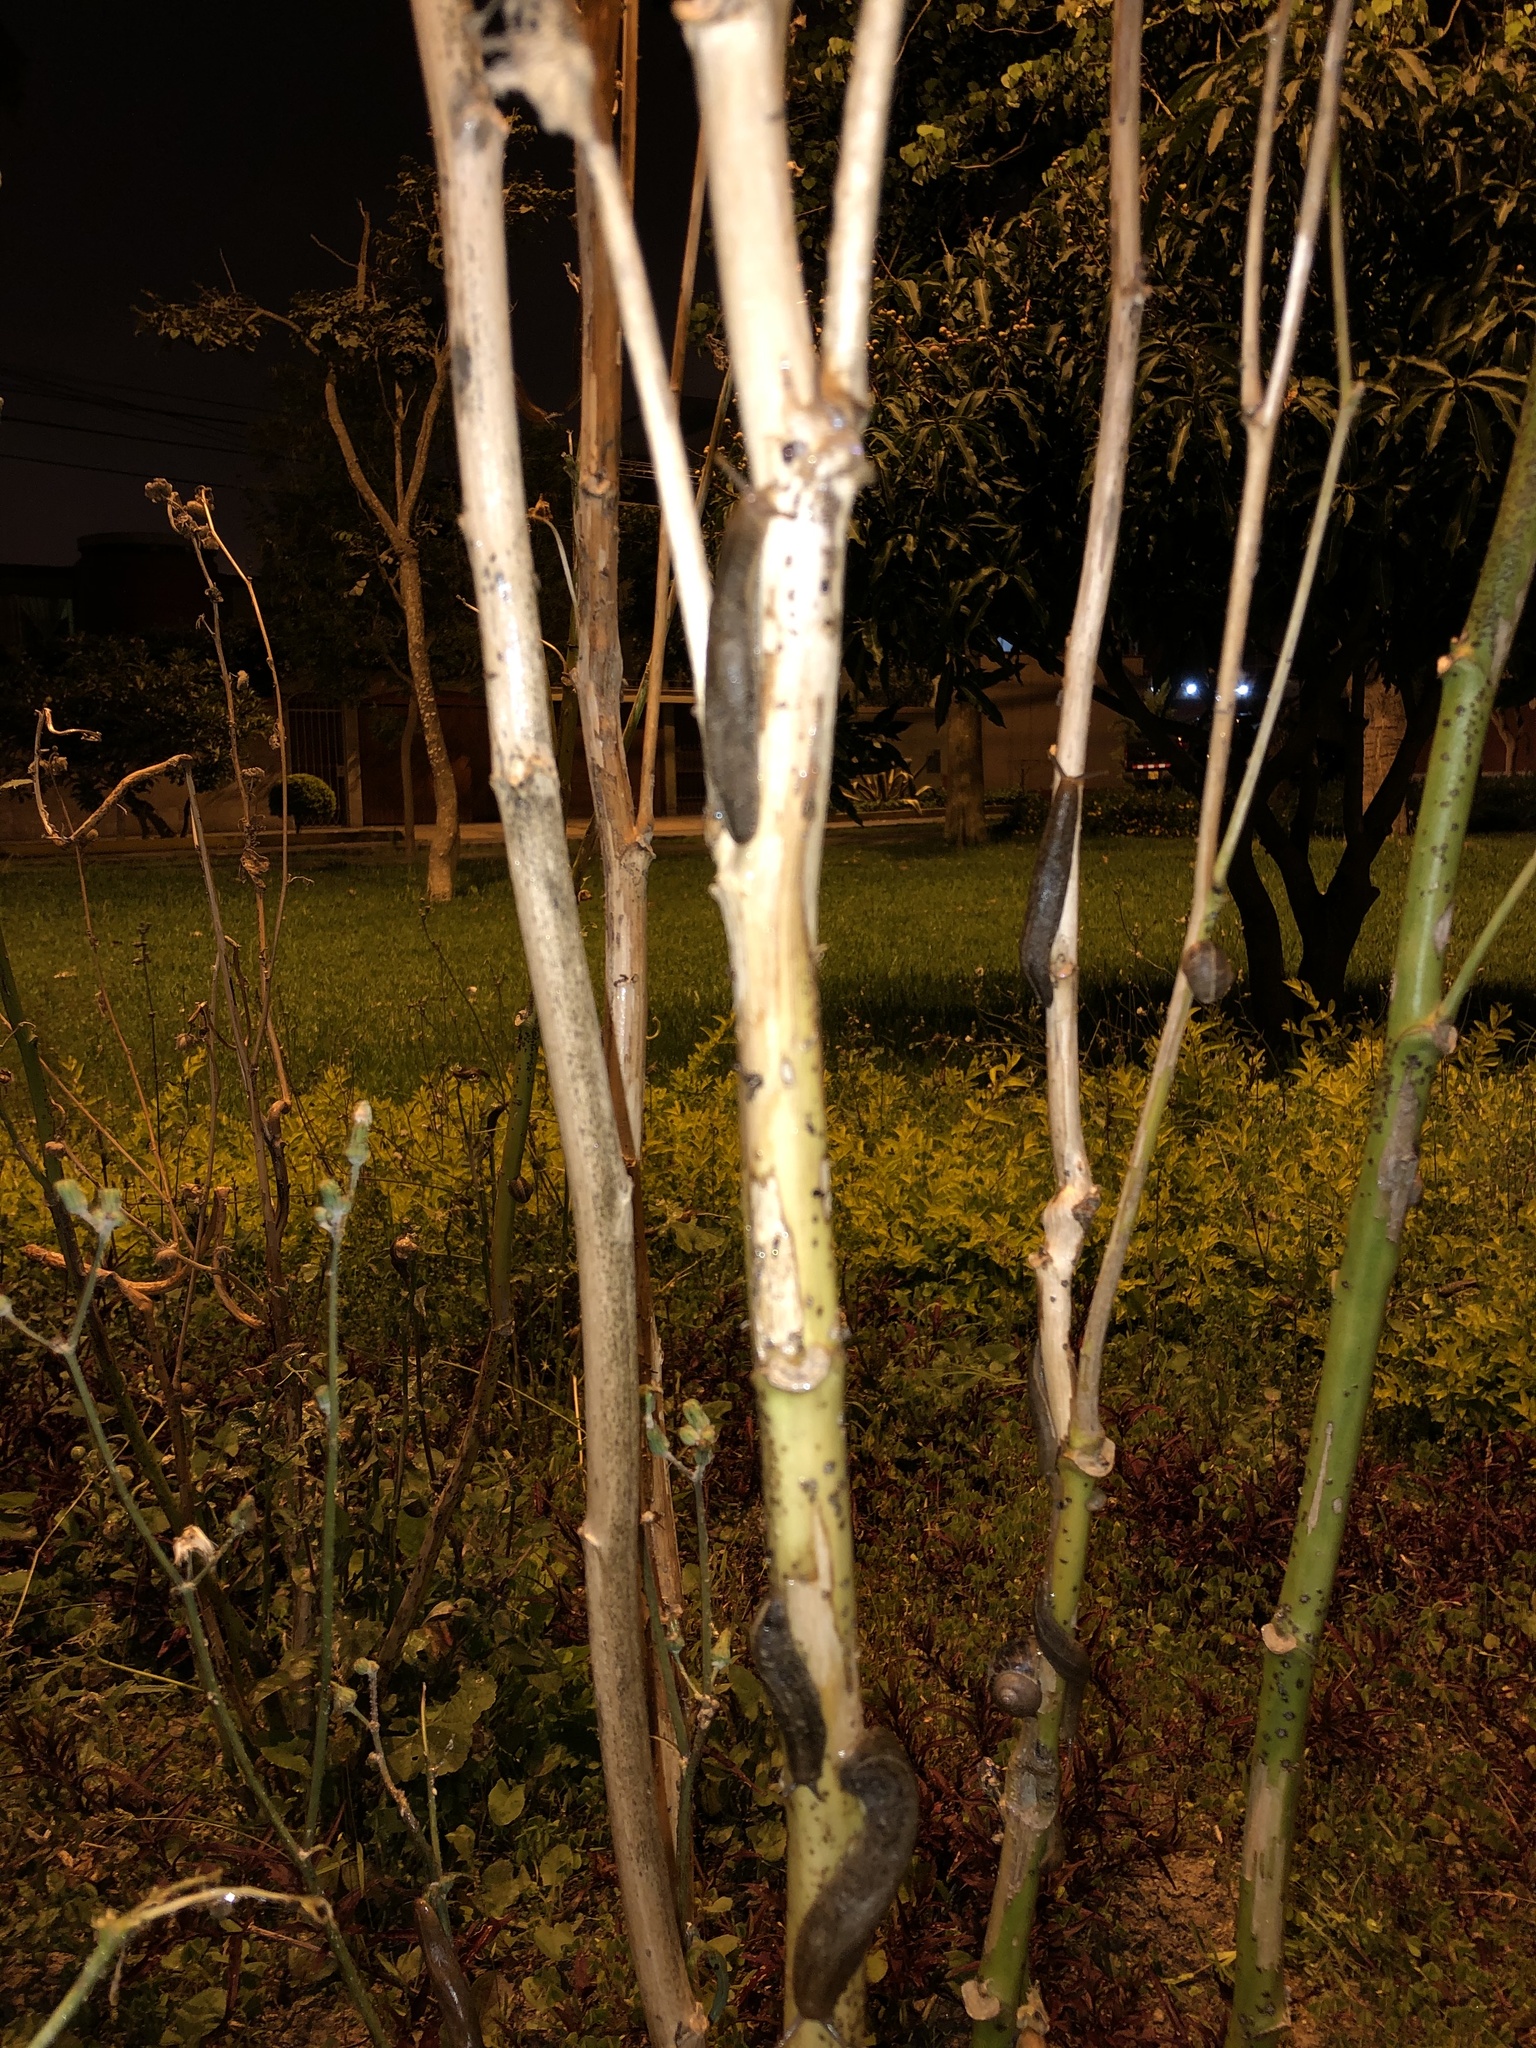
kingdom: Animalia
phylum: Mollusca
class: Gastropoda
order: Systellommatophora
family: Veronicellidae
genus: Heterovaginina
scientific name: Heterovaginina limayana
